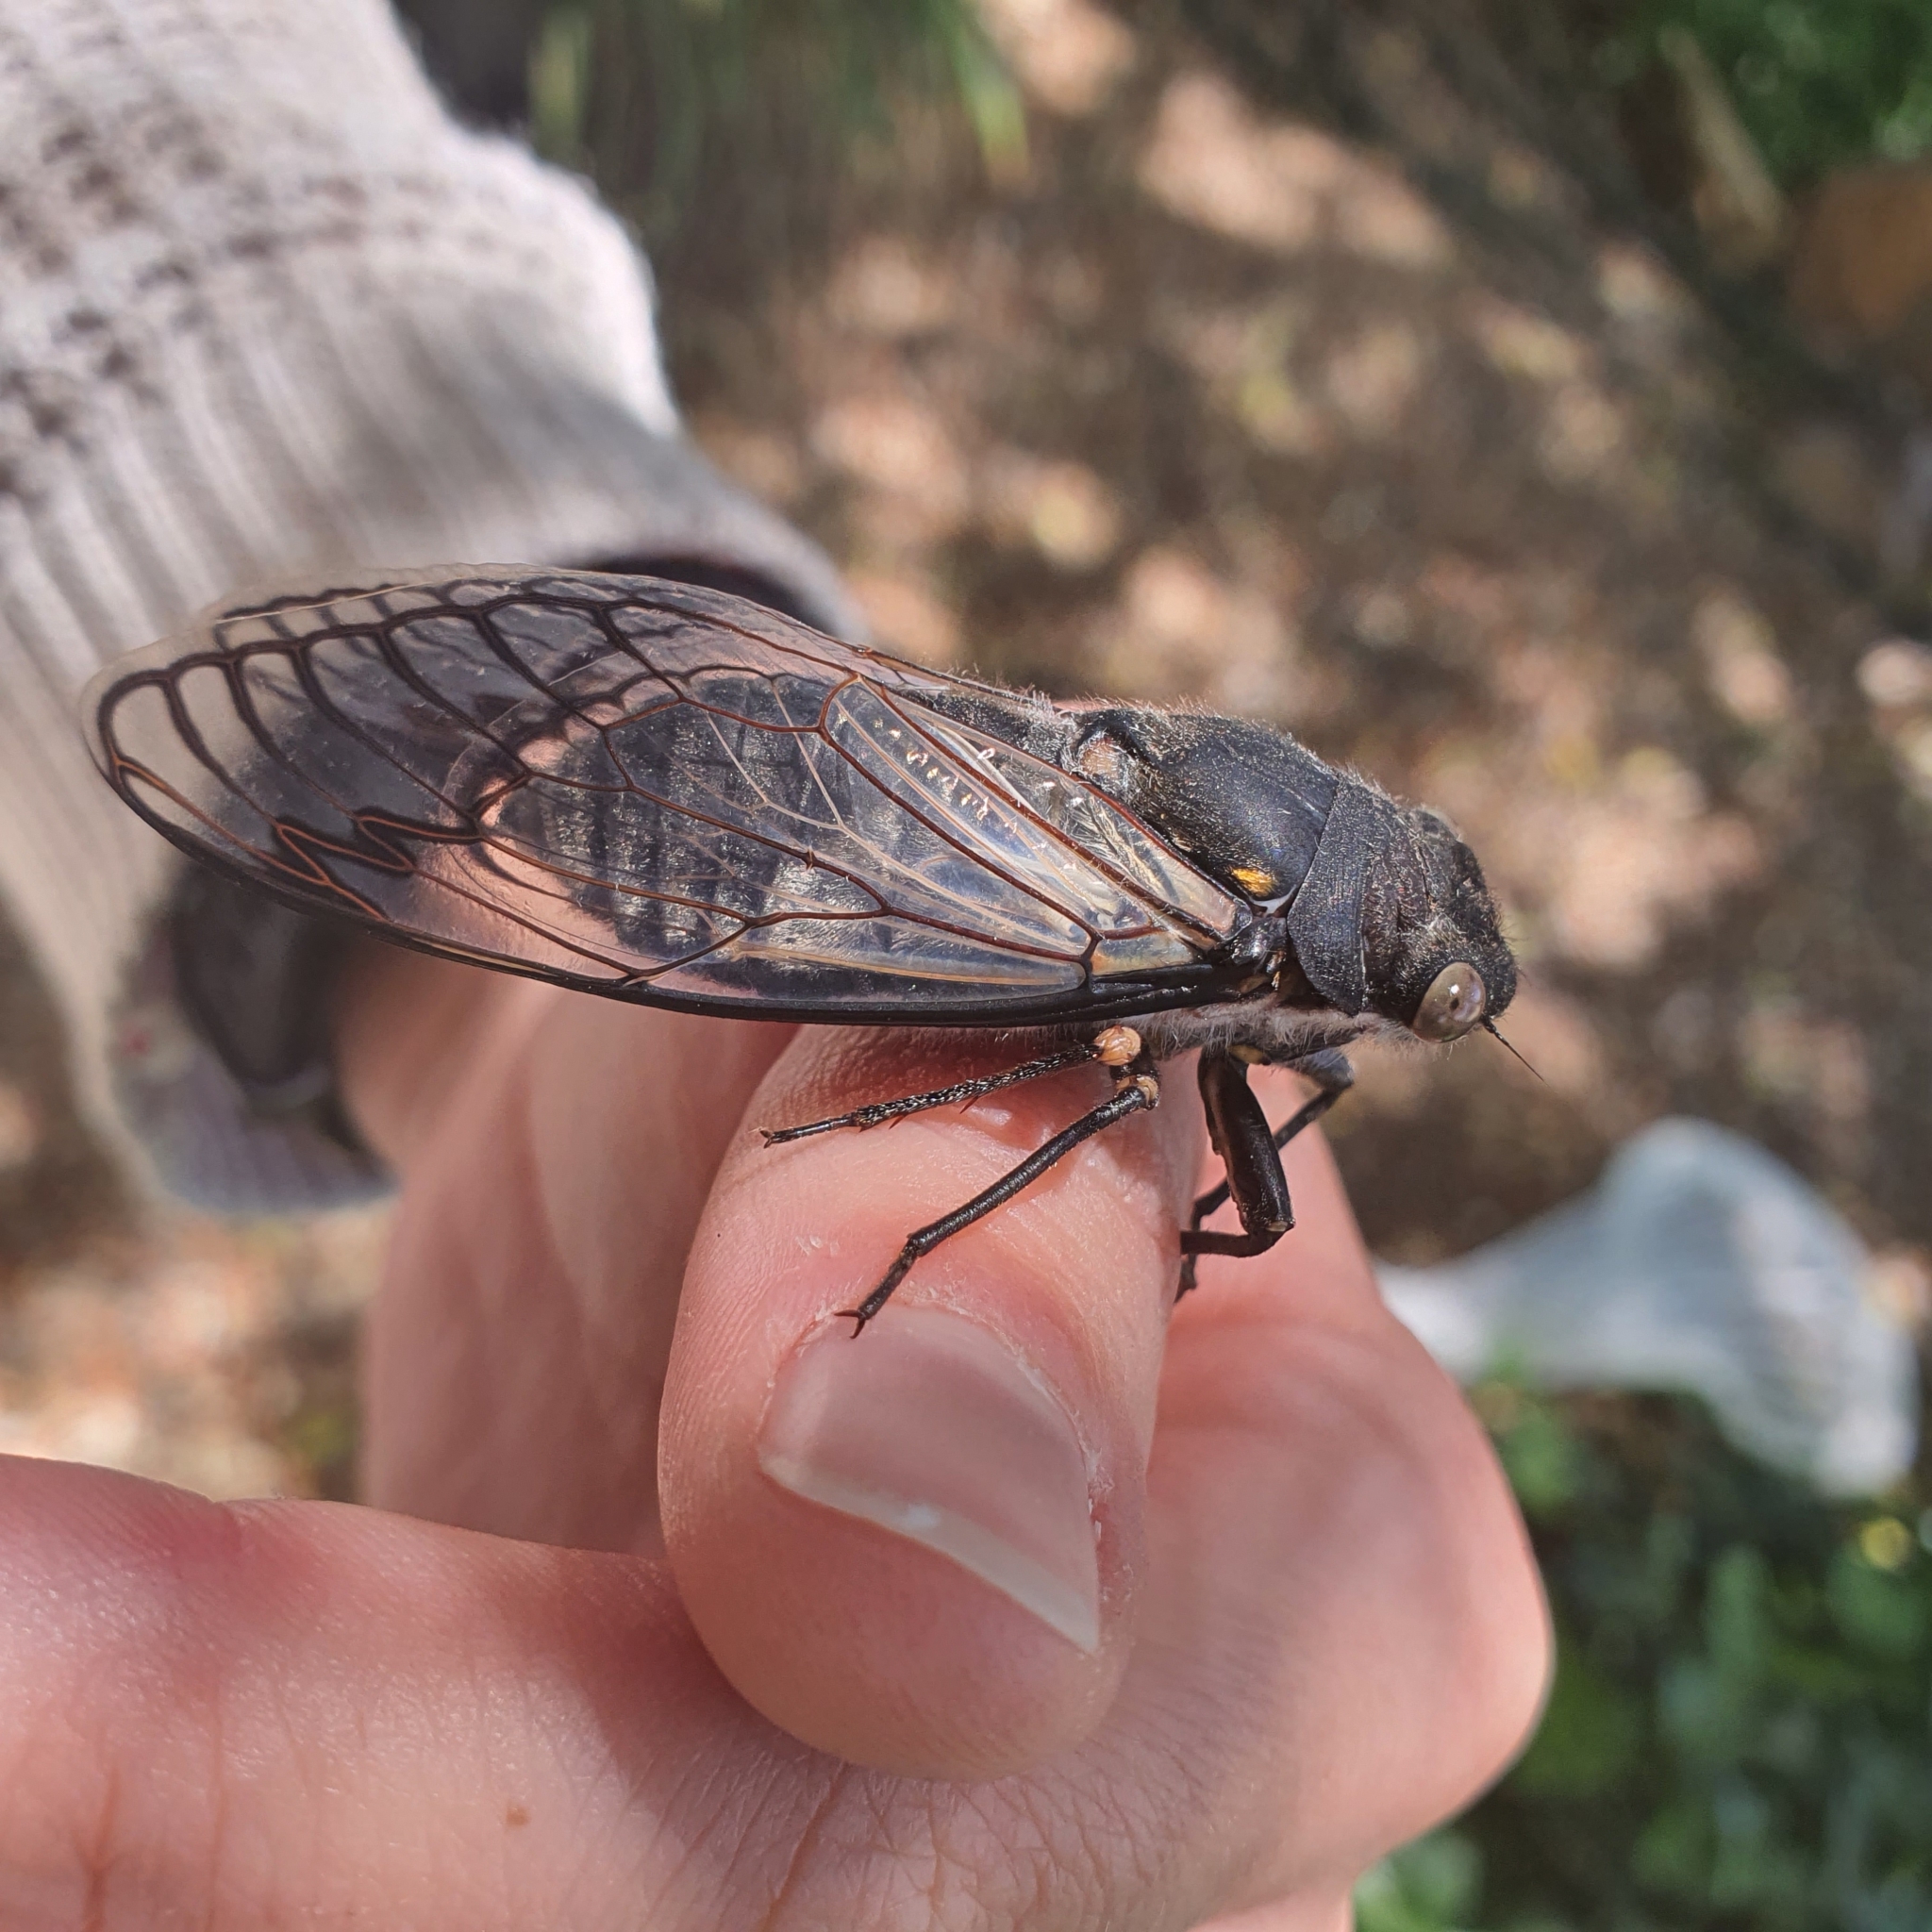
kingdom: Animalia
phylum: Arthropoda
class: Insecta
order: Hemiptera
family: Cicadidae
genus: Psaltoda
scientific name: Psaltoda moerens
